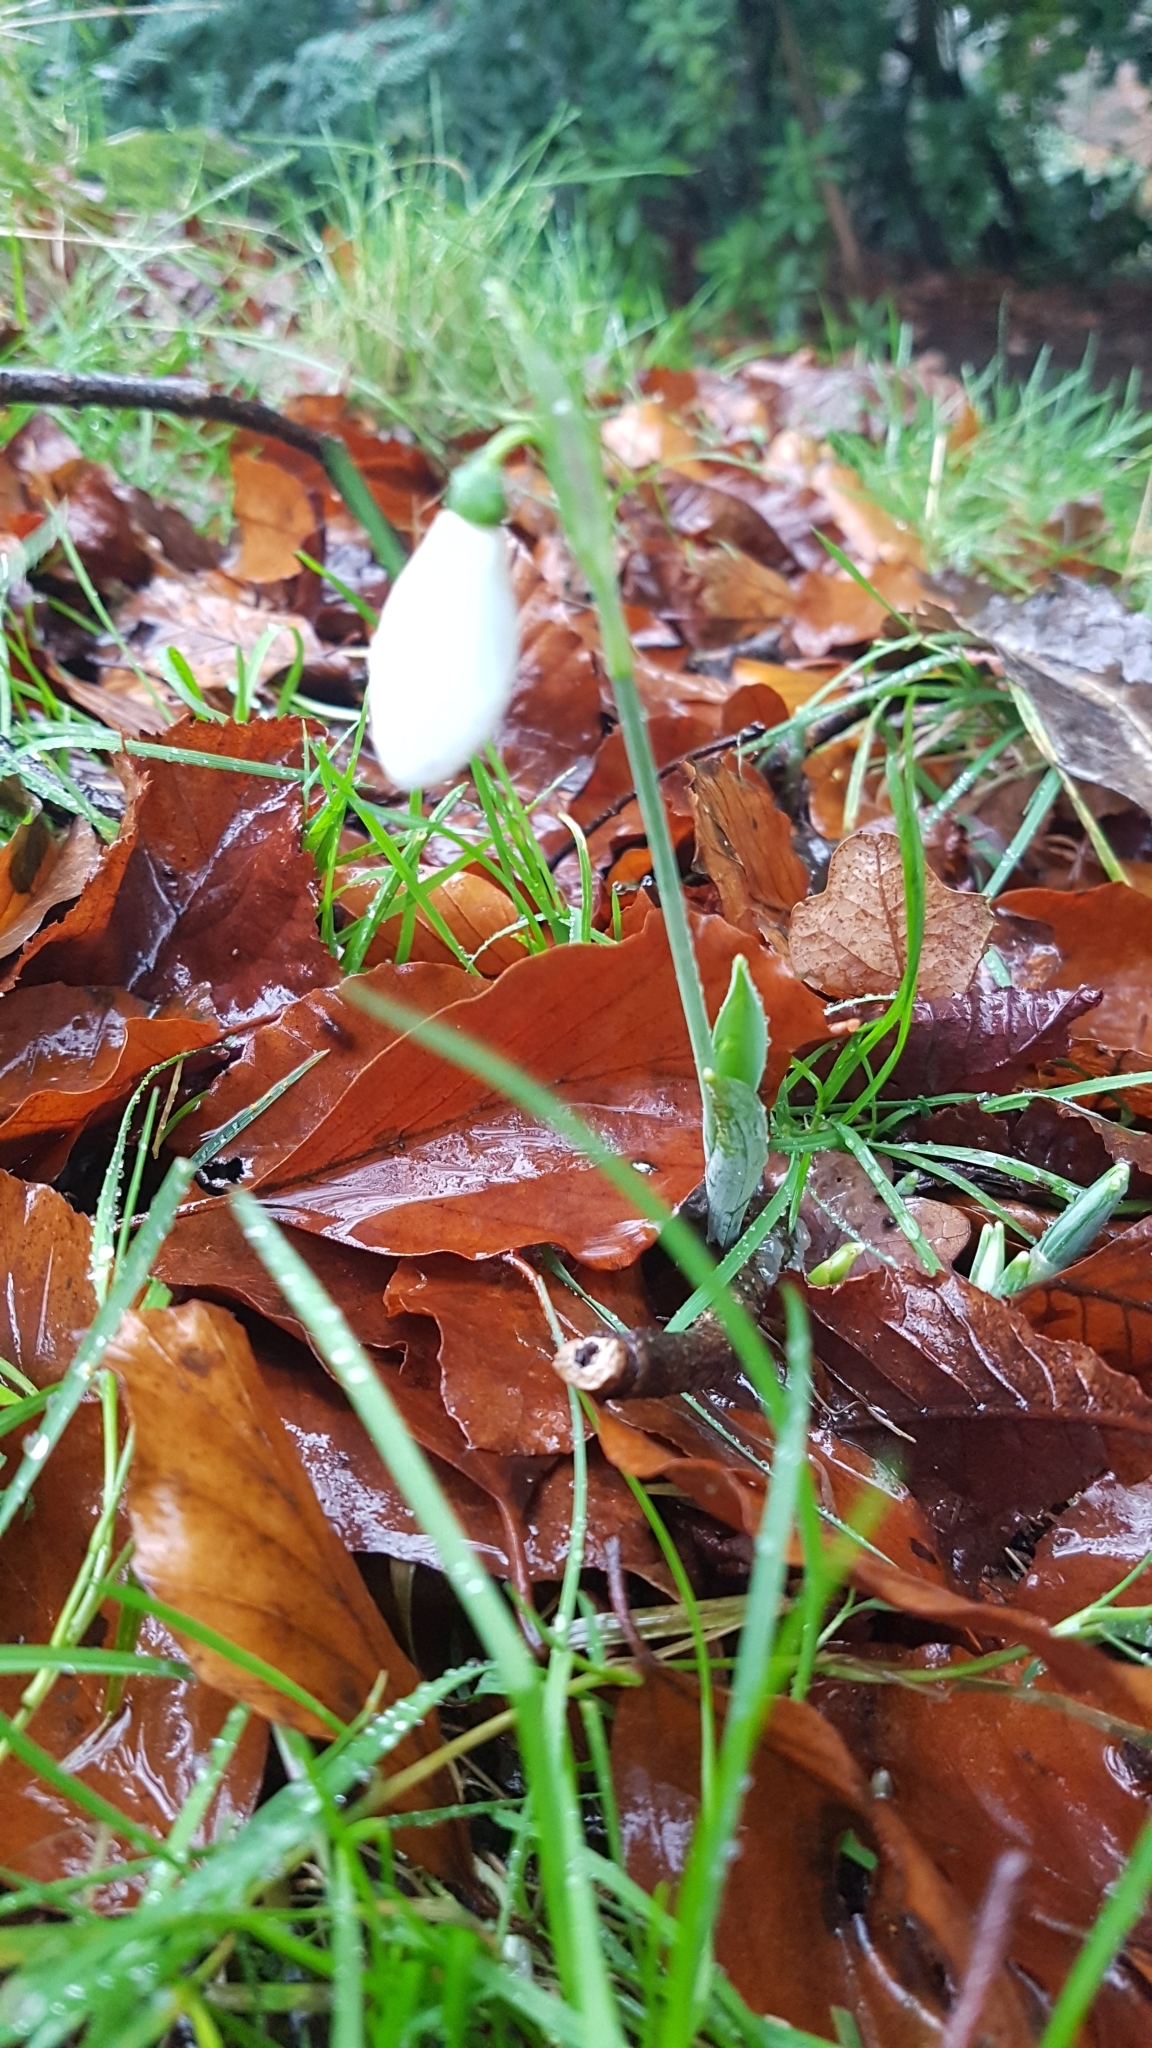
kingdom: Plantae
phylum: Tracheophyta
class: Liliopsida
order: Asparagales
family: Amaryllidaceae
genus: Galanthus
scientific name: Galanthus nivalis
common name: Snowdrop
